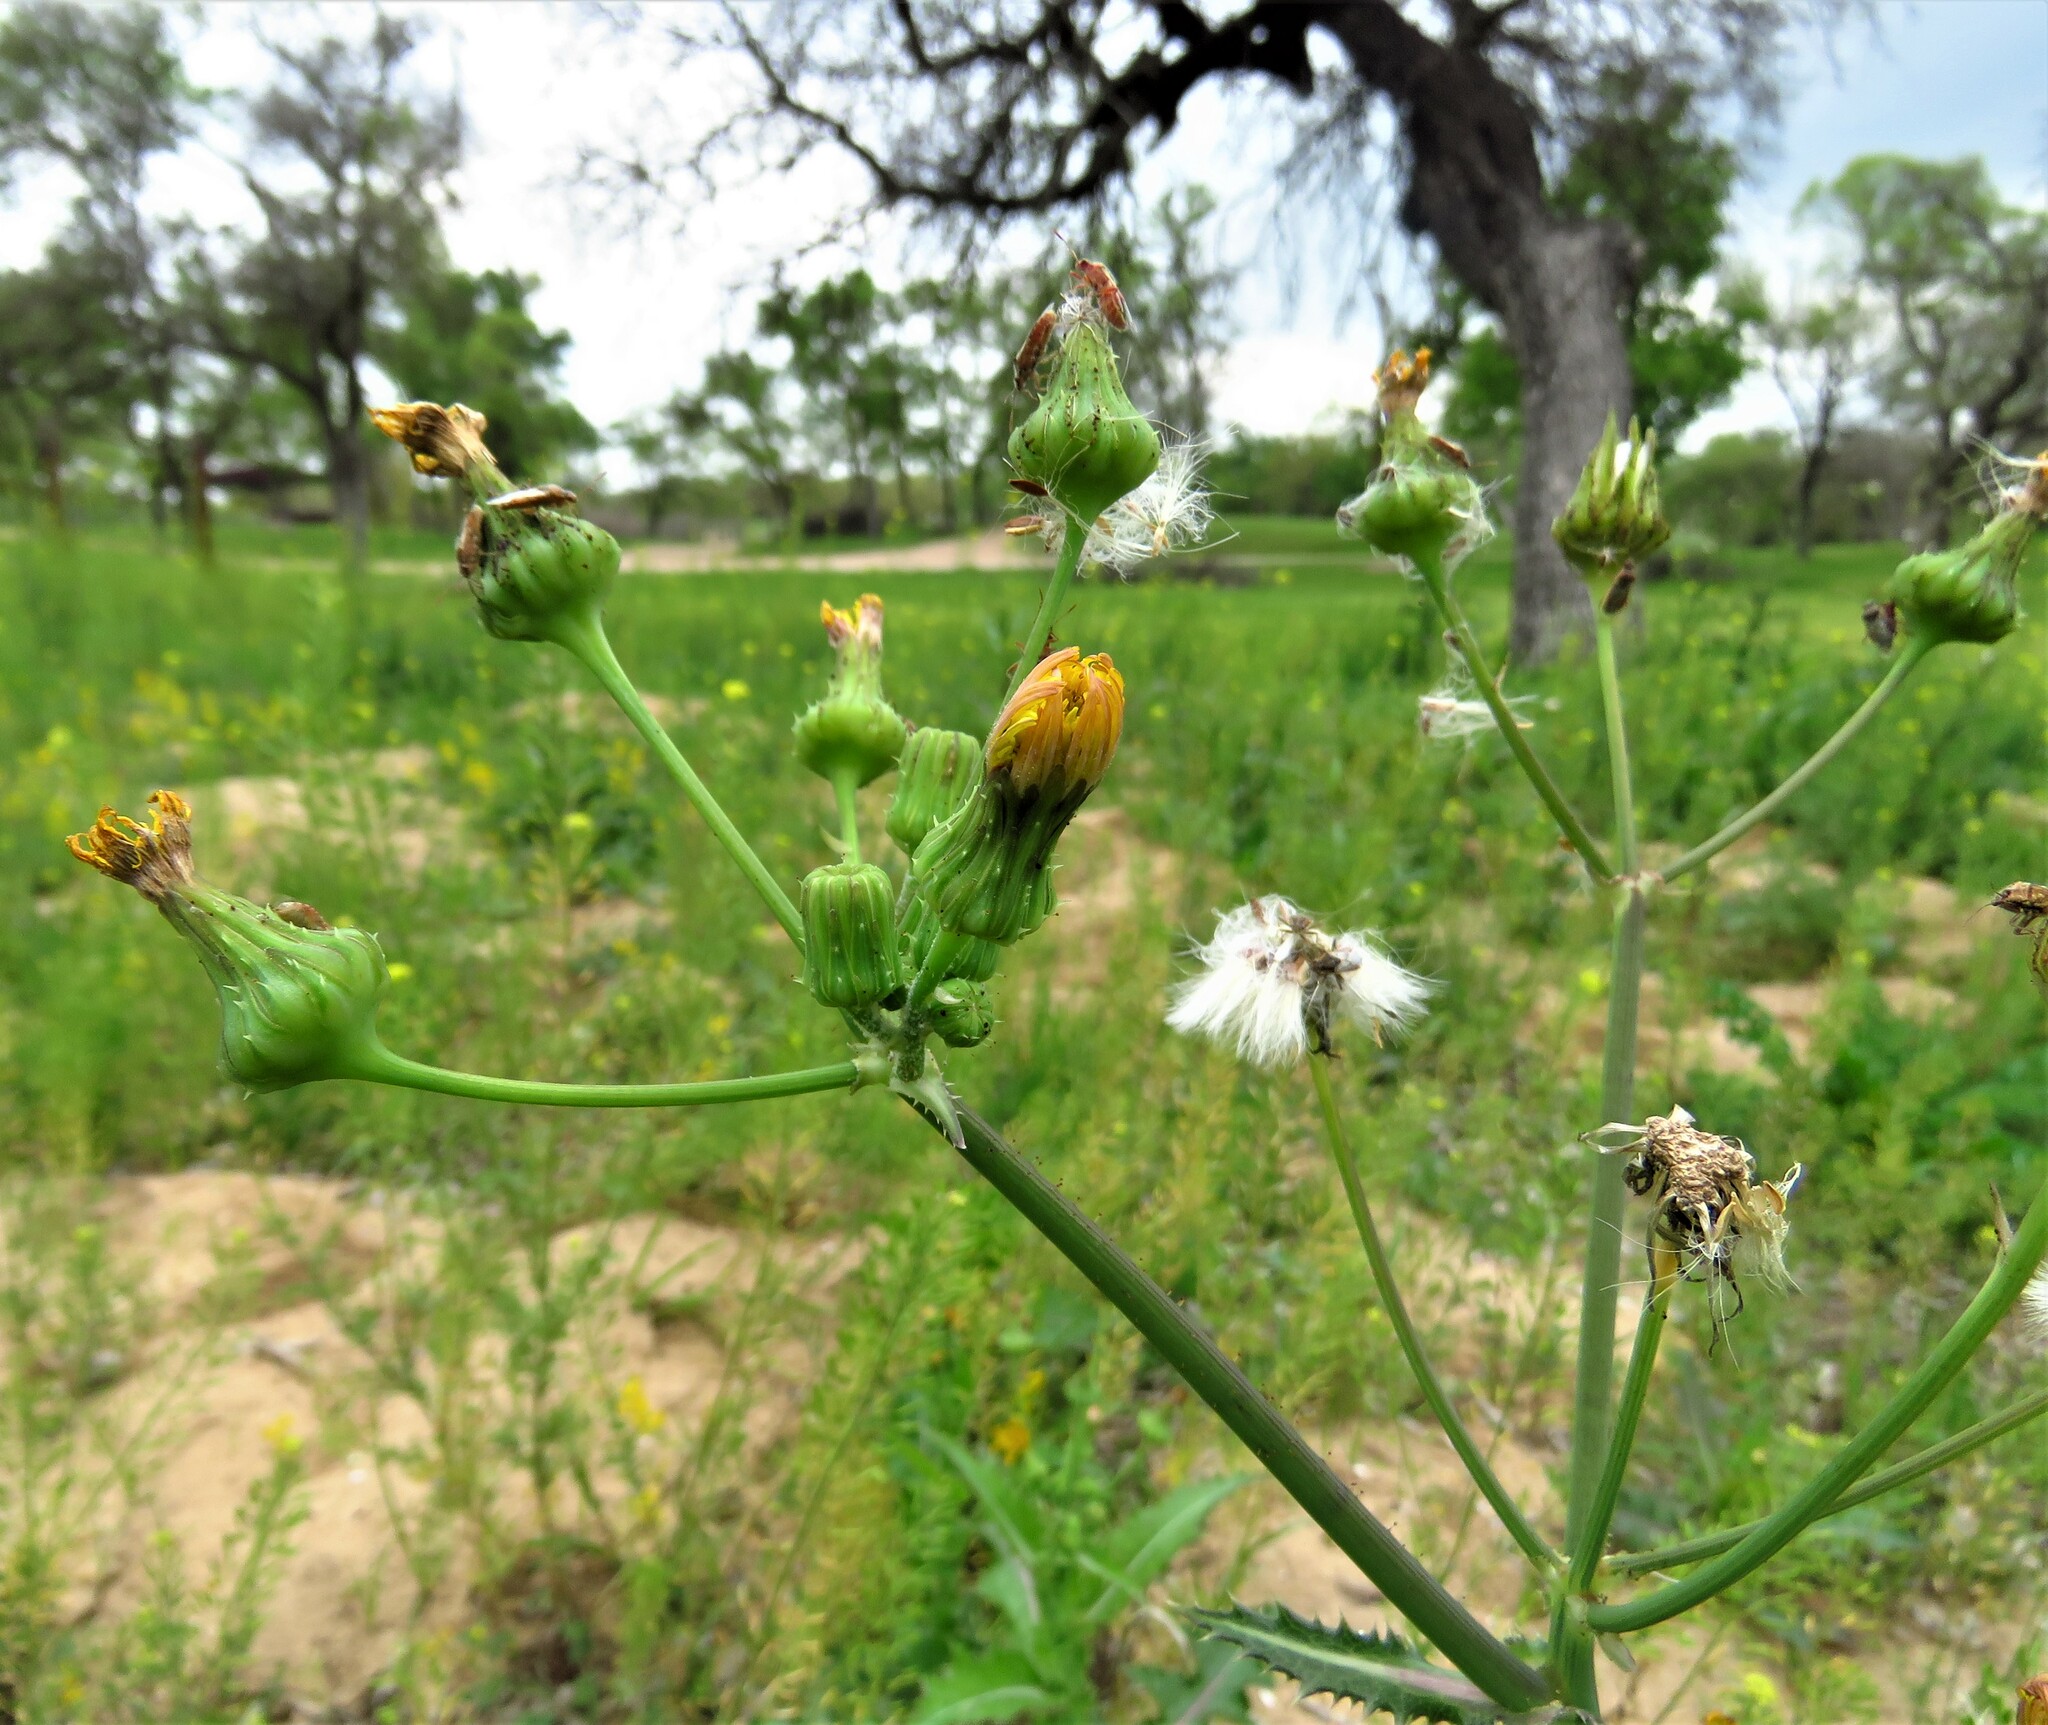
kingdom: Plantae
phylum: Tracheophyta
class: Magnoliopsida
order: Asterales
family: Asteraceae
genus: Sonchus
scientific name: Sonchus asper
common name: Prickly sow-thistle
